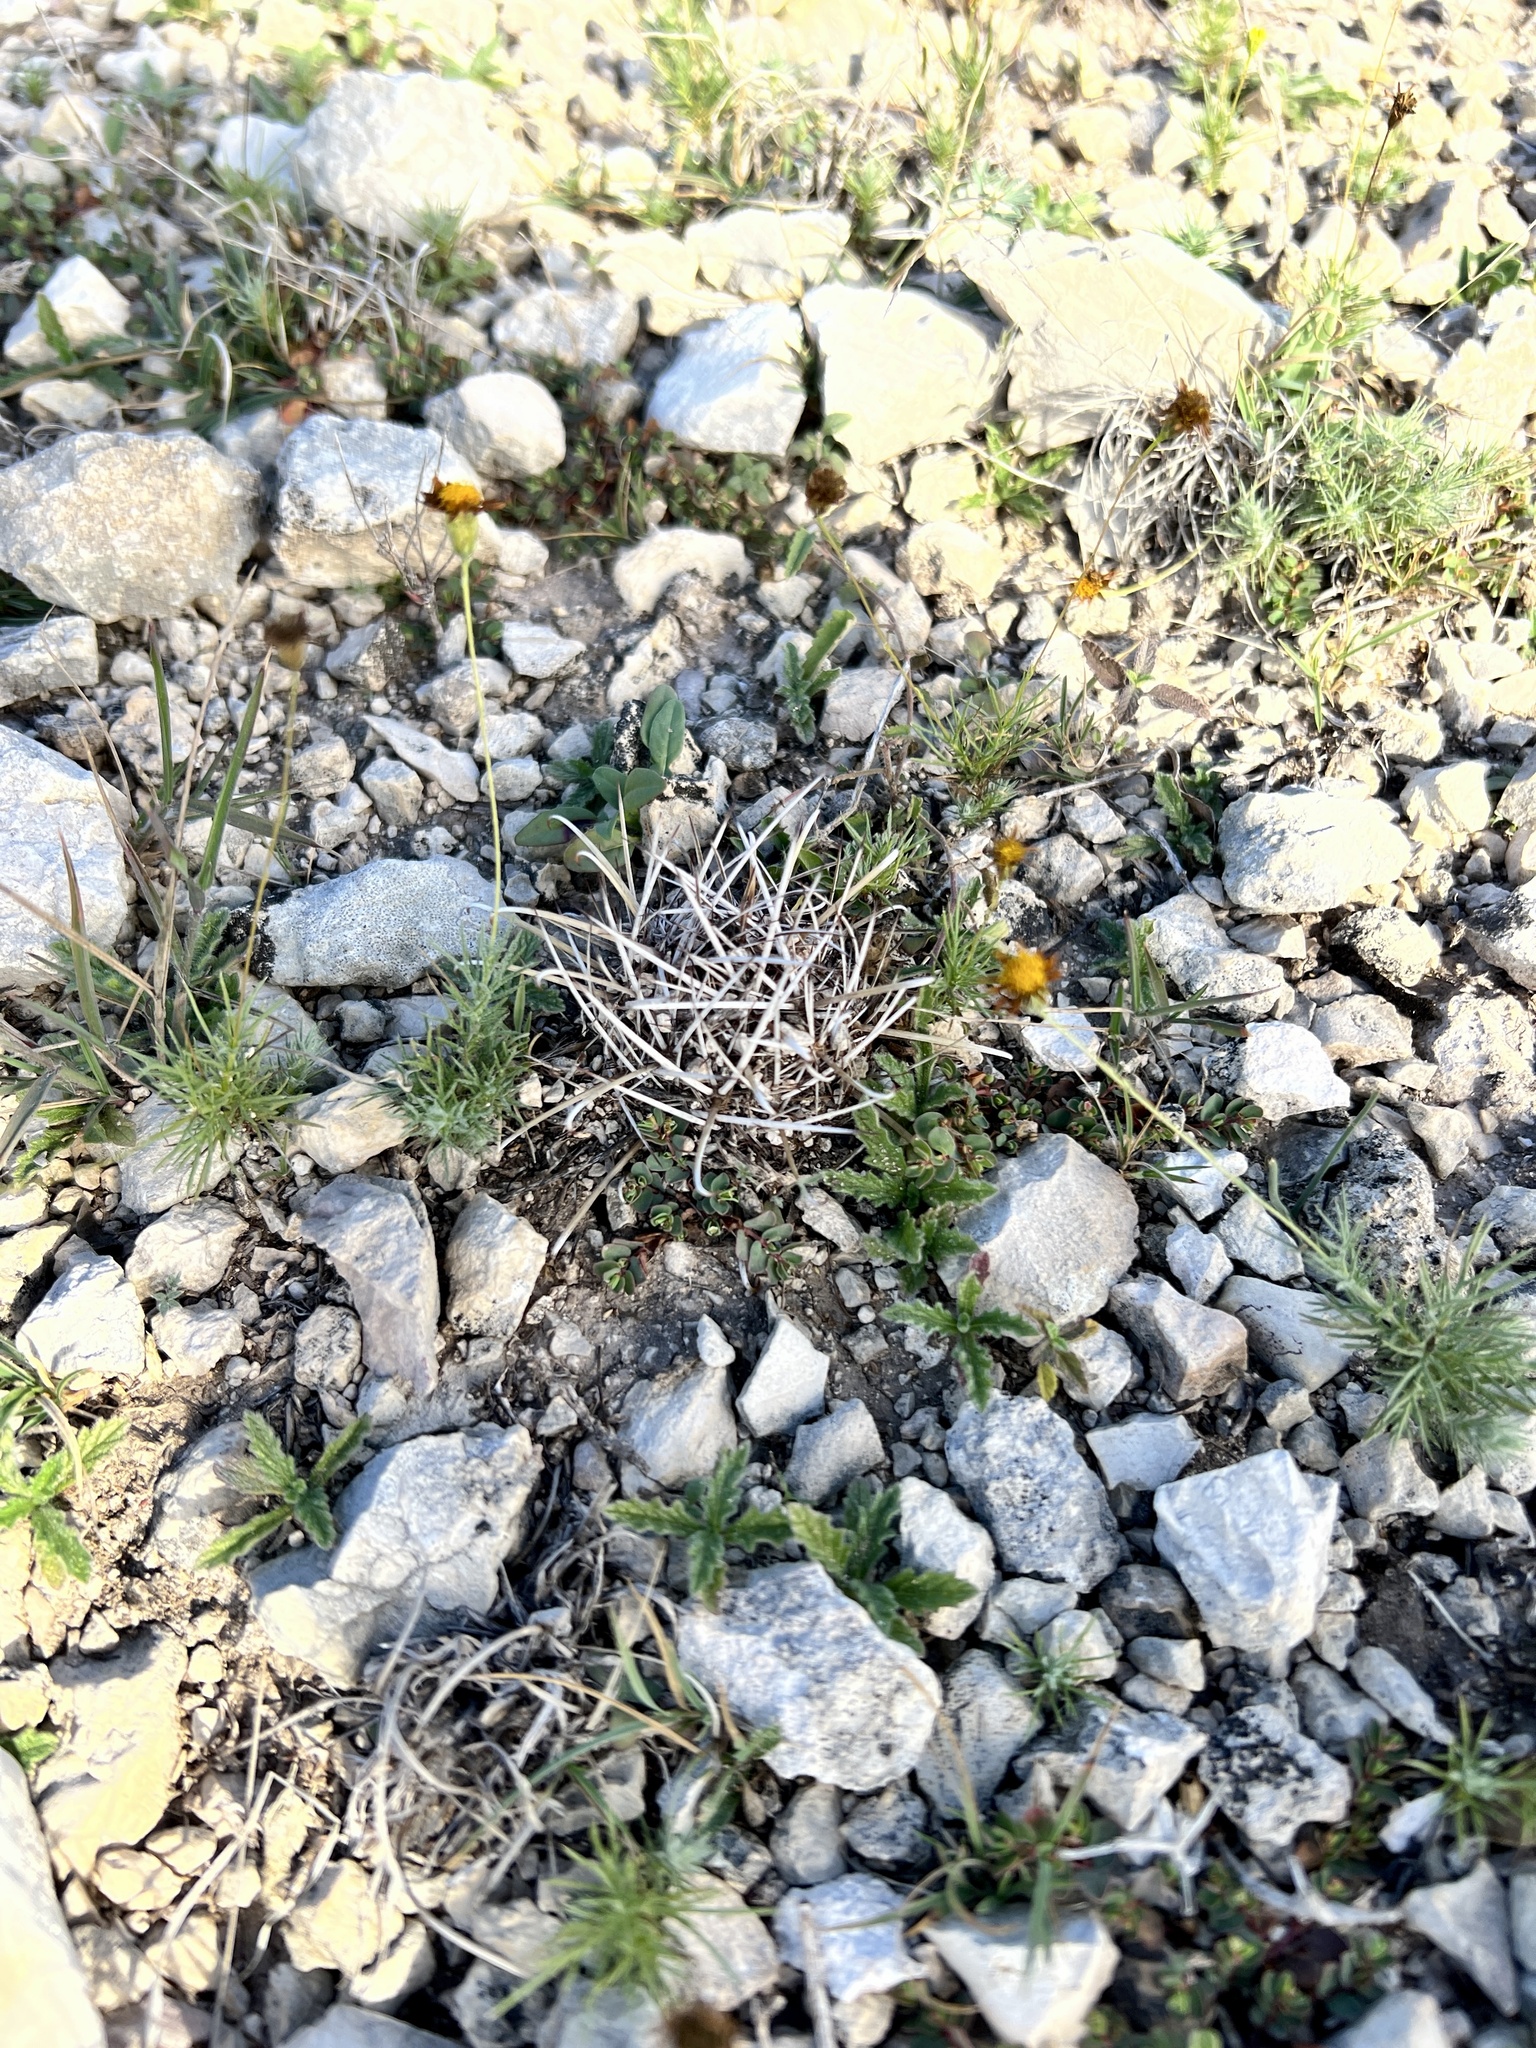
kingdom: Plantae
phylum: Tracheophyta
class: Magnoliopsida
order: Caryophyllales
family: Cactaceae
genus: Sclerocactus
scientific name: Sclerocactus brevihamatus
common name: Engelmann's fishhook cactus
